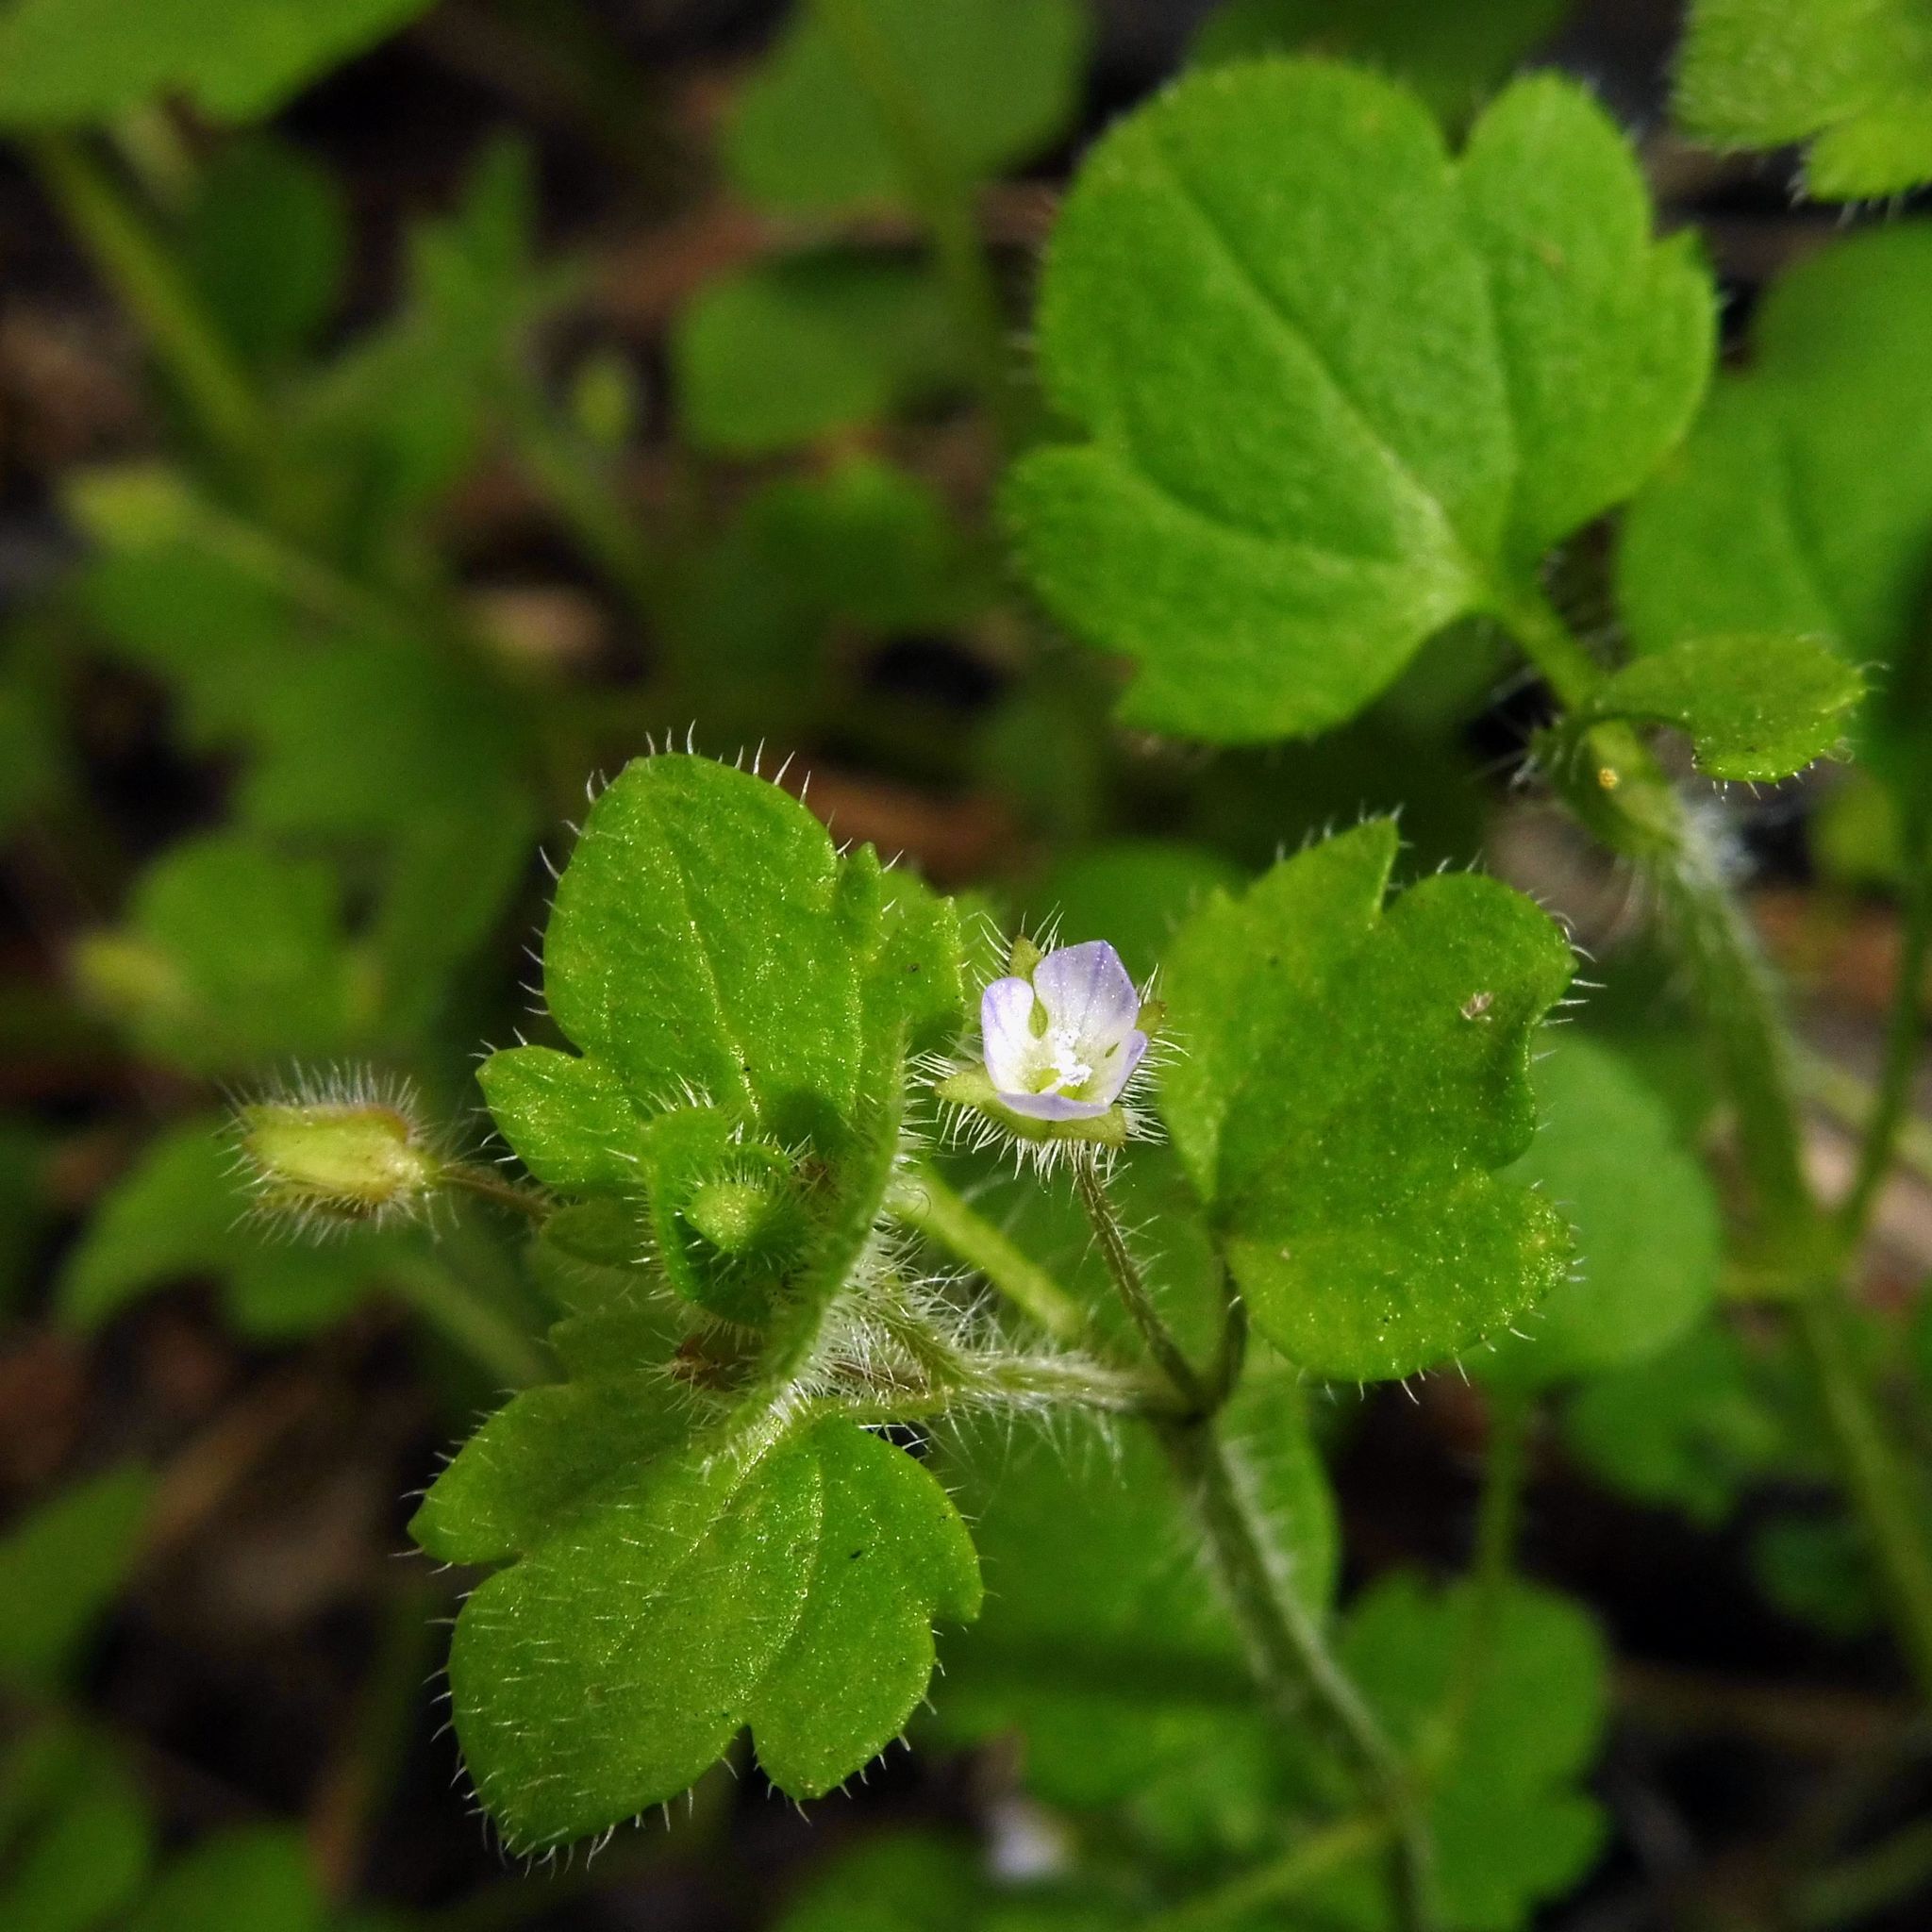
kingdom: Plantae
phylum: Tracheophyta
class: Magnoliopsida
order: Lamiales
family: Plantaginaceae
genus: Veronica
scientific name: Veronica sublobata
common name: False ivy-leaved speedwell
